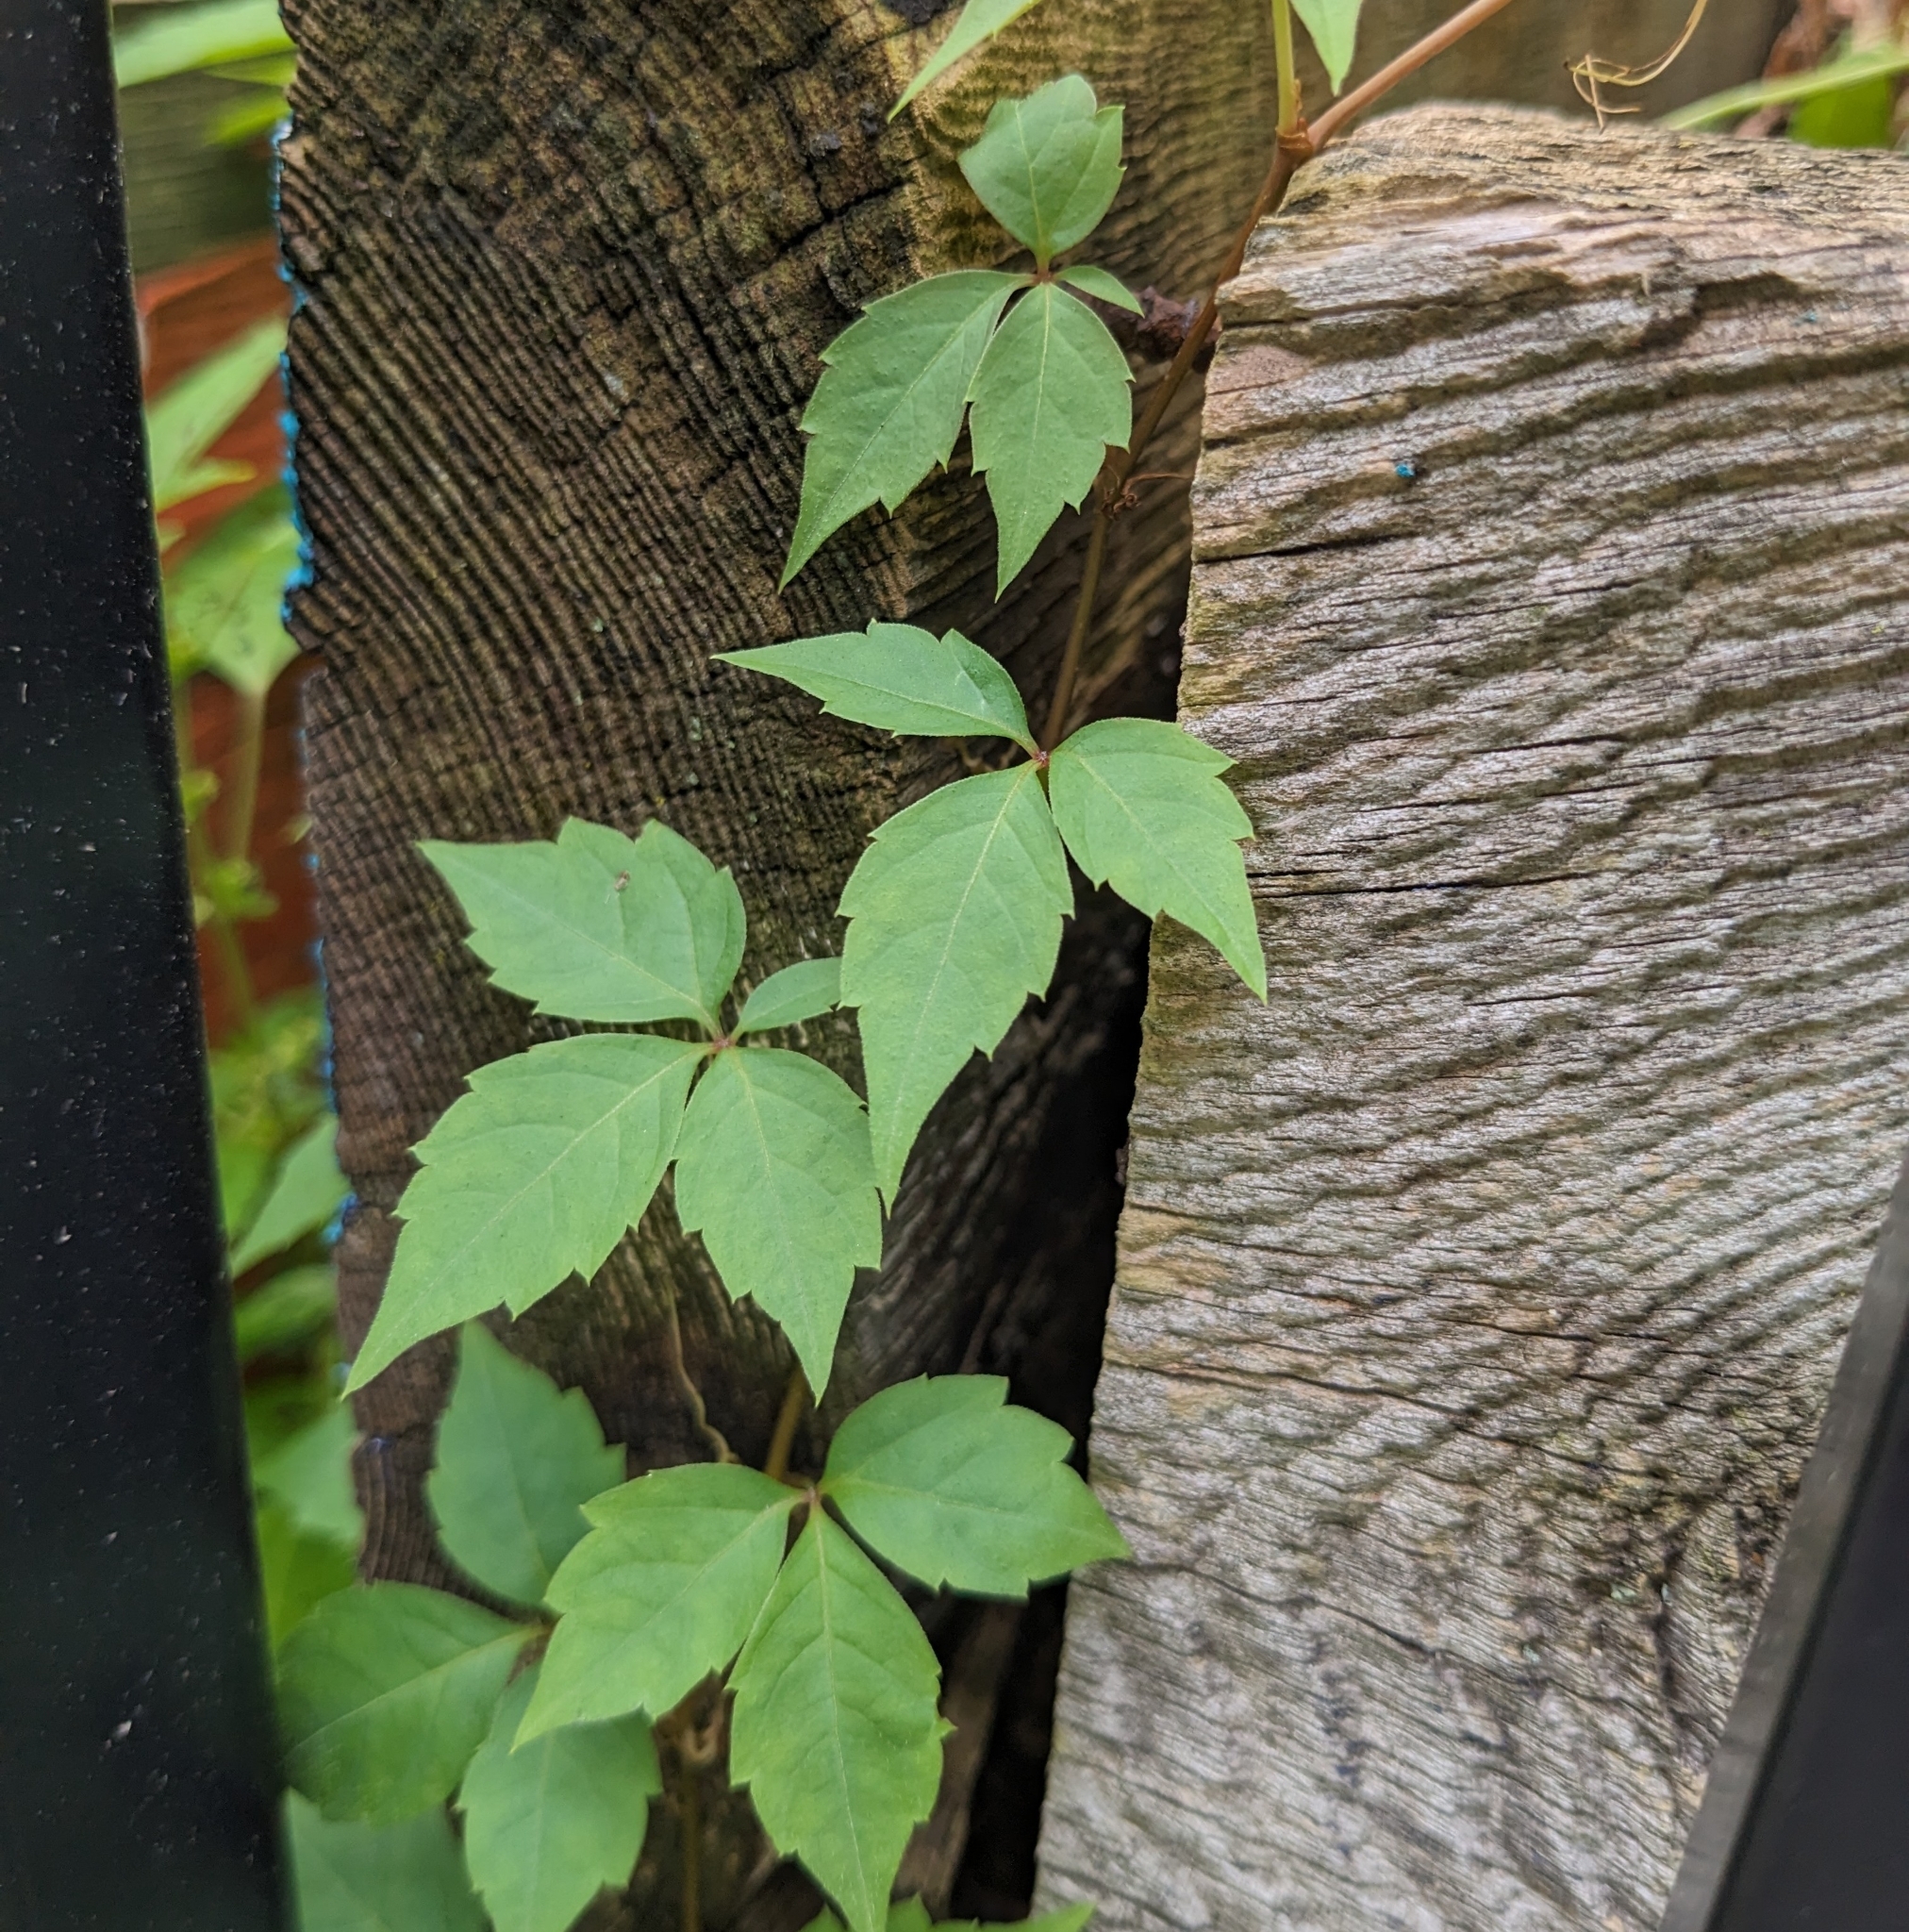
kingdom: Plantae
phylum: Tracheophyta
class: Magnoliopsida
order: Vitales
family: Vitaceae
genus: Parthenocissus
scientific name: Parthenocissus quinquefolia
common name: Virginia-creeper
